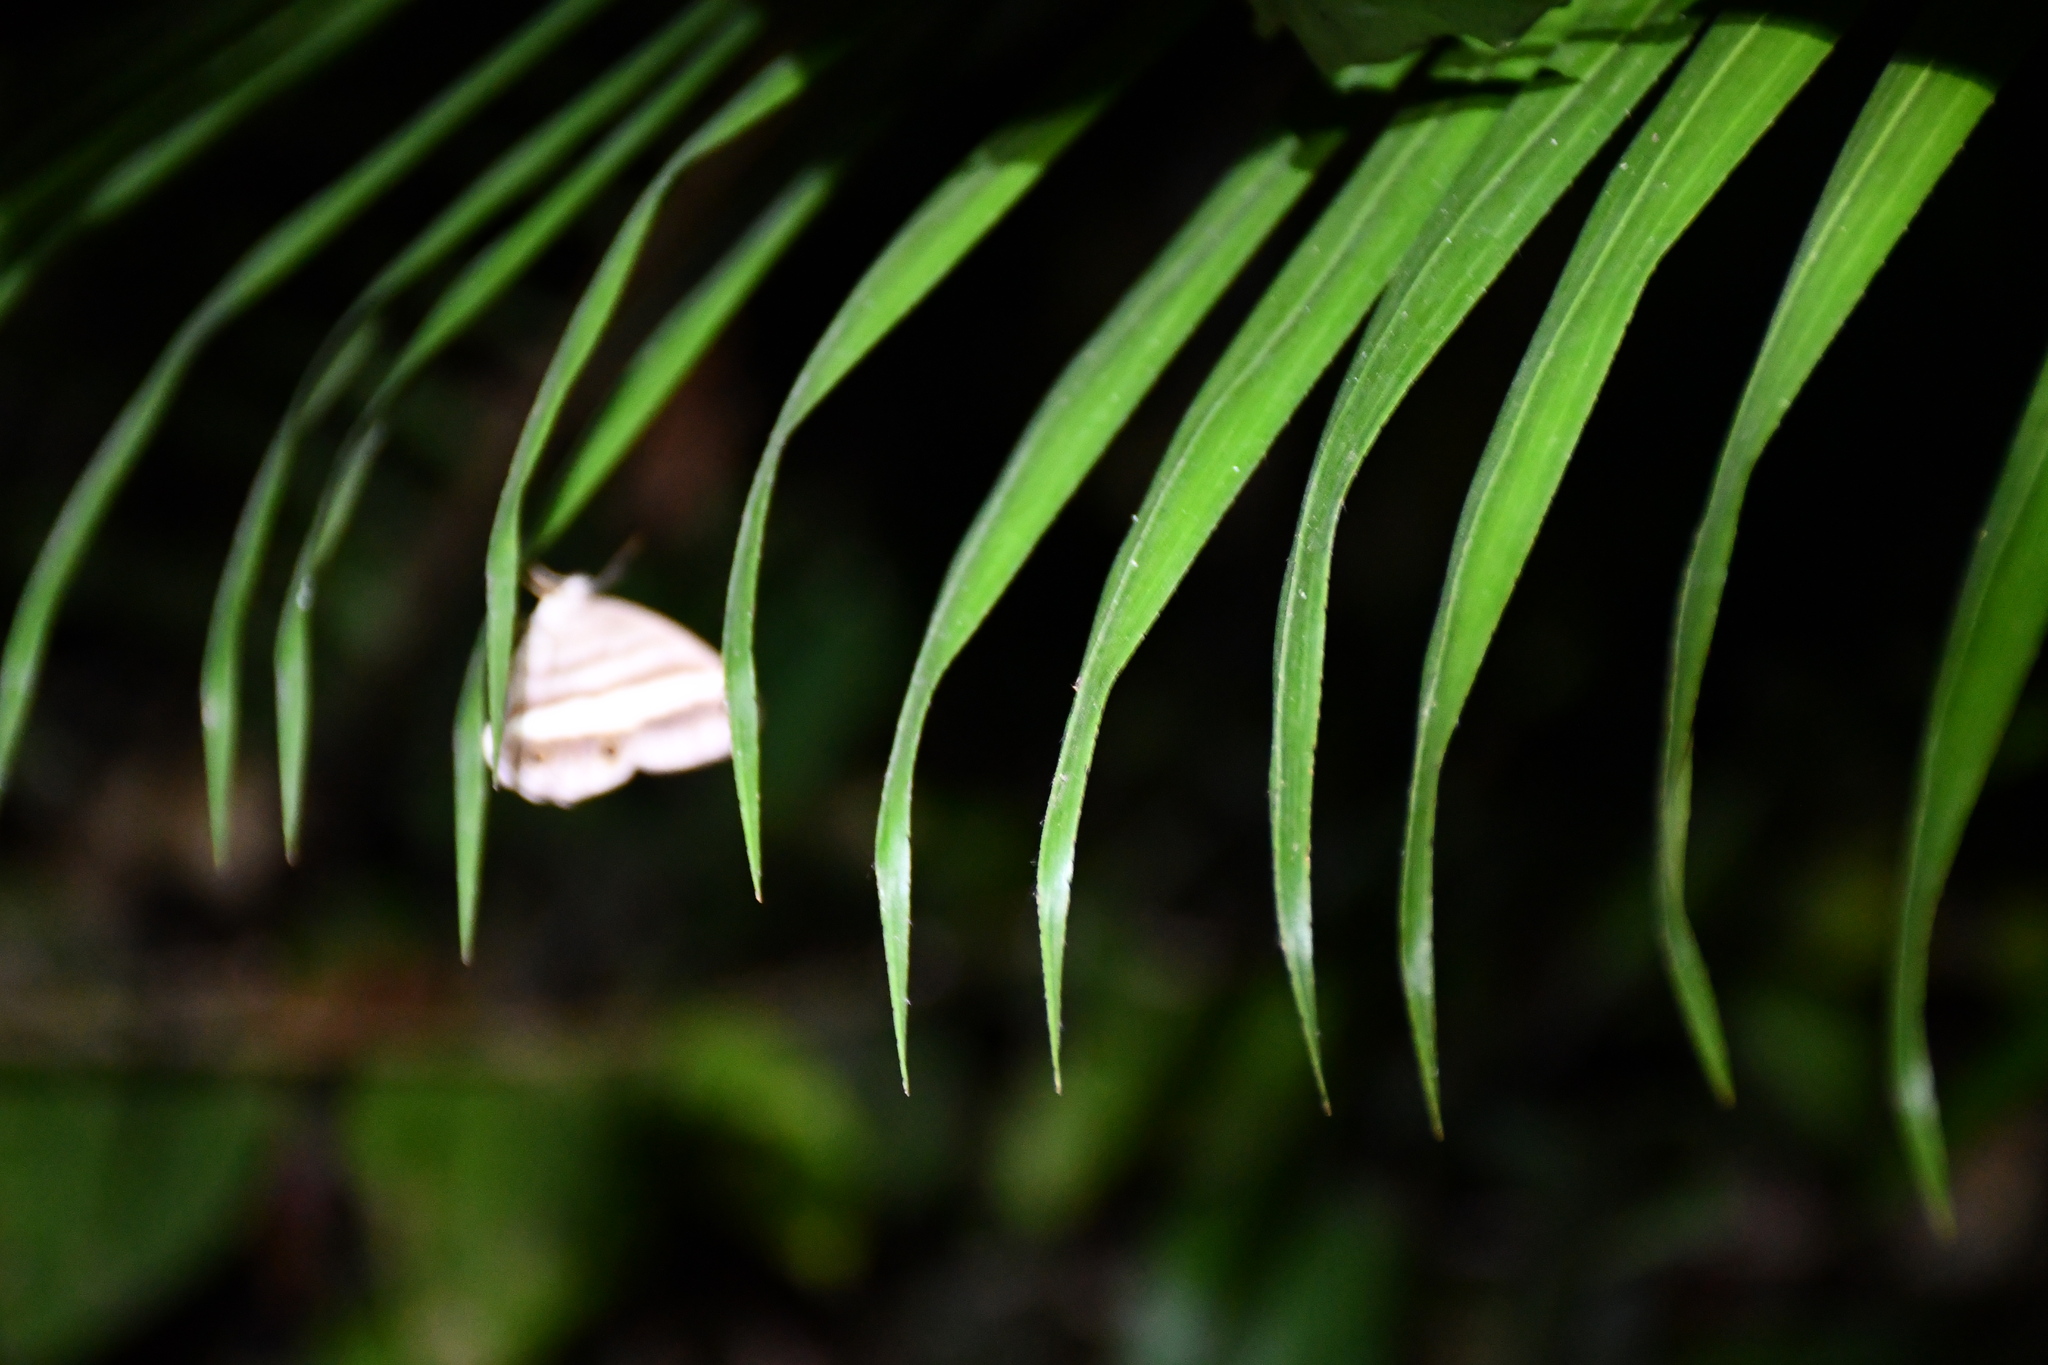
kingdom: Animalia
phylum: Arthropoda
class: Insecta
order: Lepidoptera
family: Nymphalidae
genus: Pareuptychia
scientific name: Pareuptychia hesione
